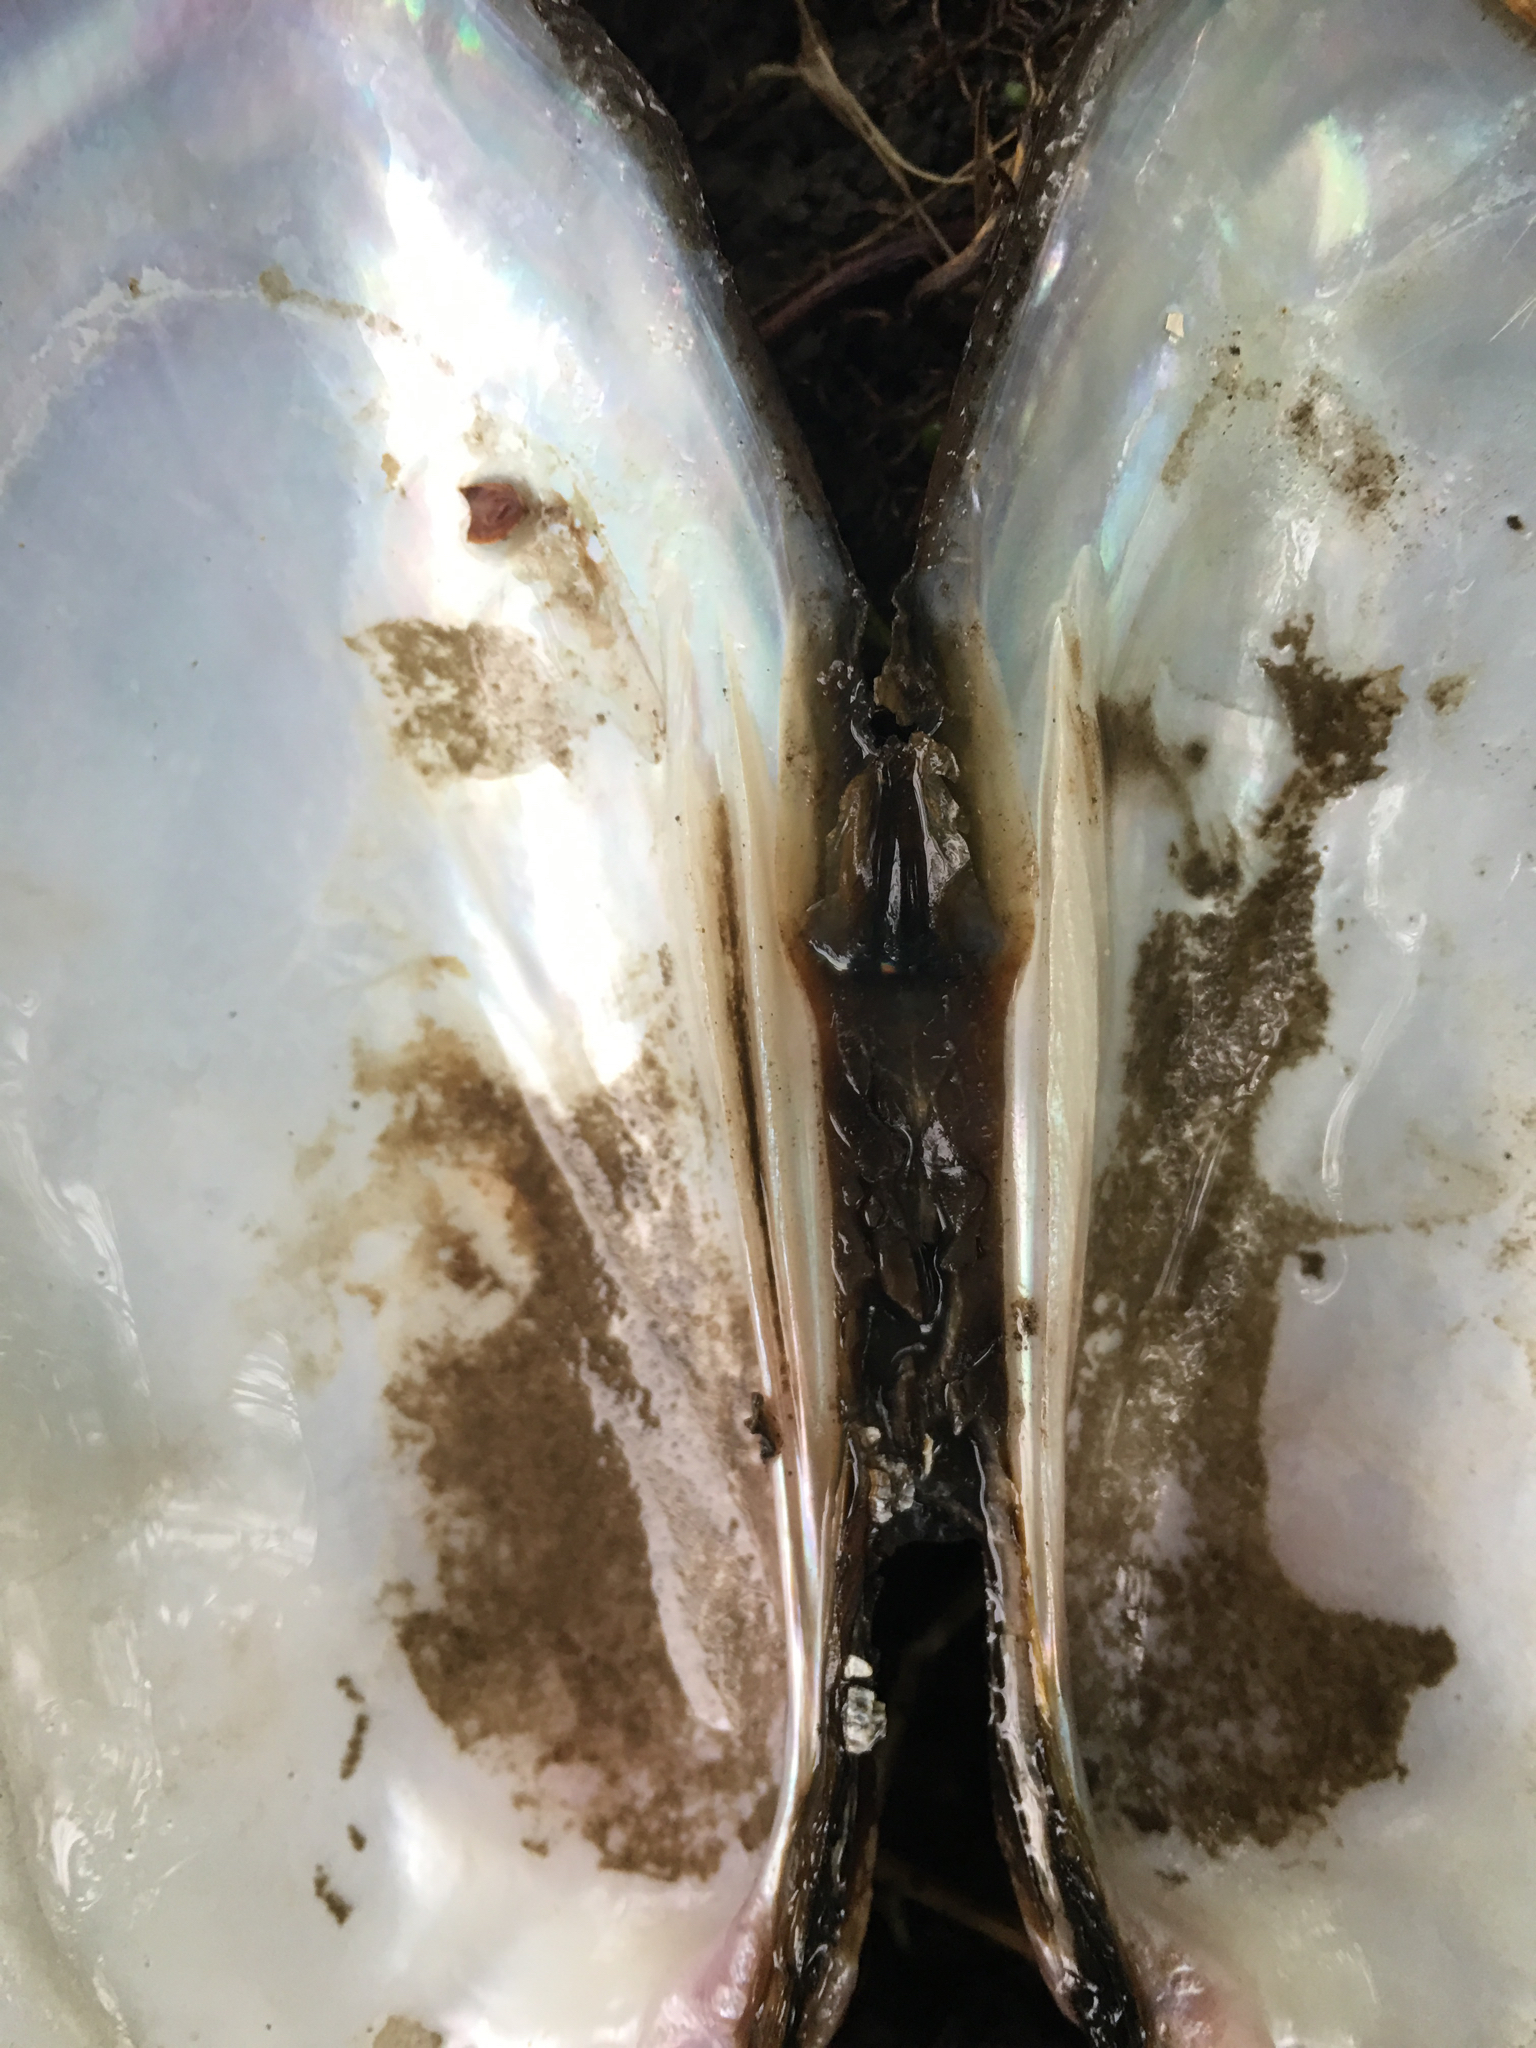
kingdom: Animalia
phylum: Mollusca
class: Bivalvia
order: Unionida
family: Unionidae
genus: Ligumia
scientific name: Ligumia recta
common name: Black sandshell
